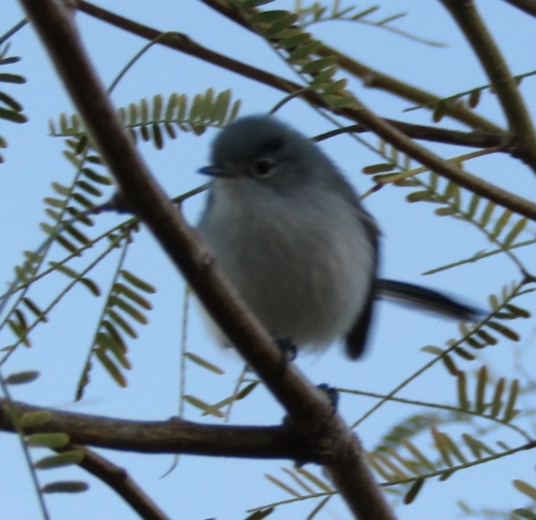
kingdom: Animalia
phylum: Chordata
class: Aves
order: Passeriformes
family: Polioptilidae
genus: Polioptila
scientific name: Polioptila melanura
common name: Black-tailed gnatcatcher
